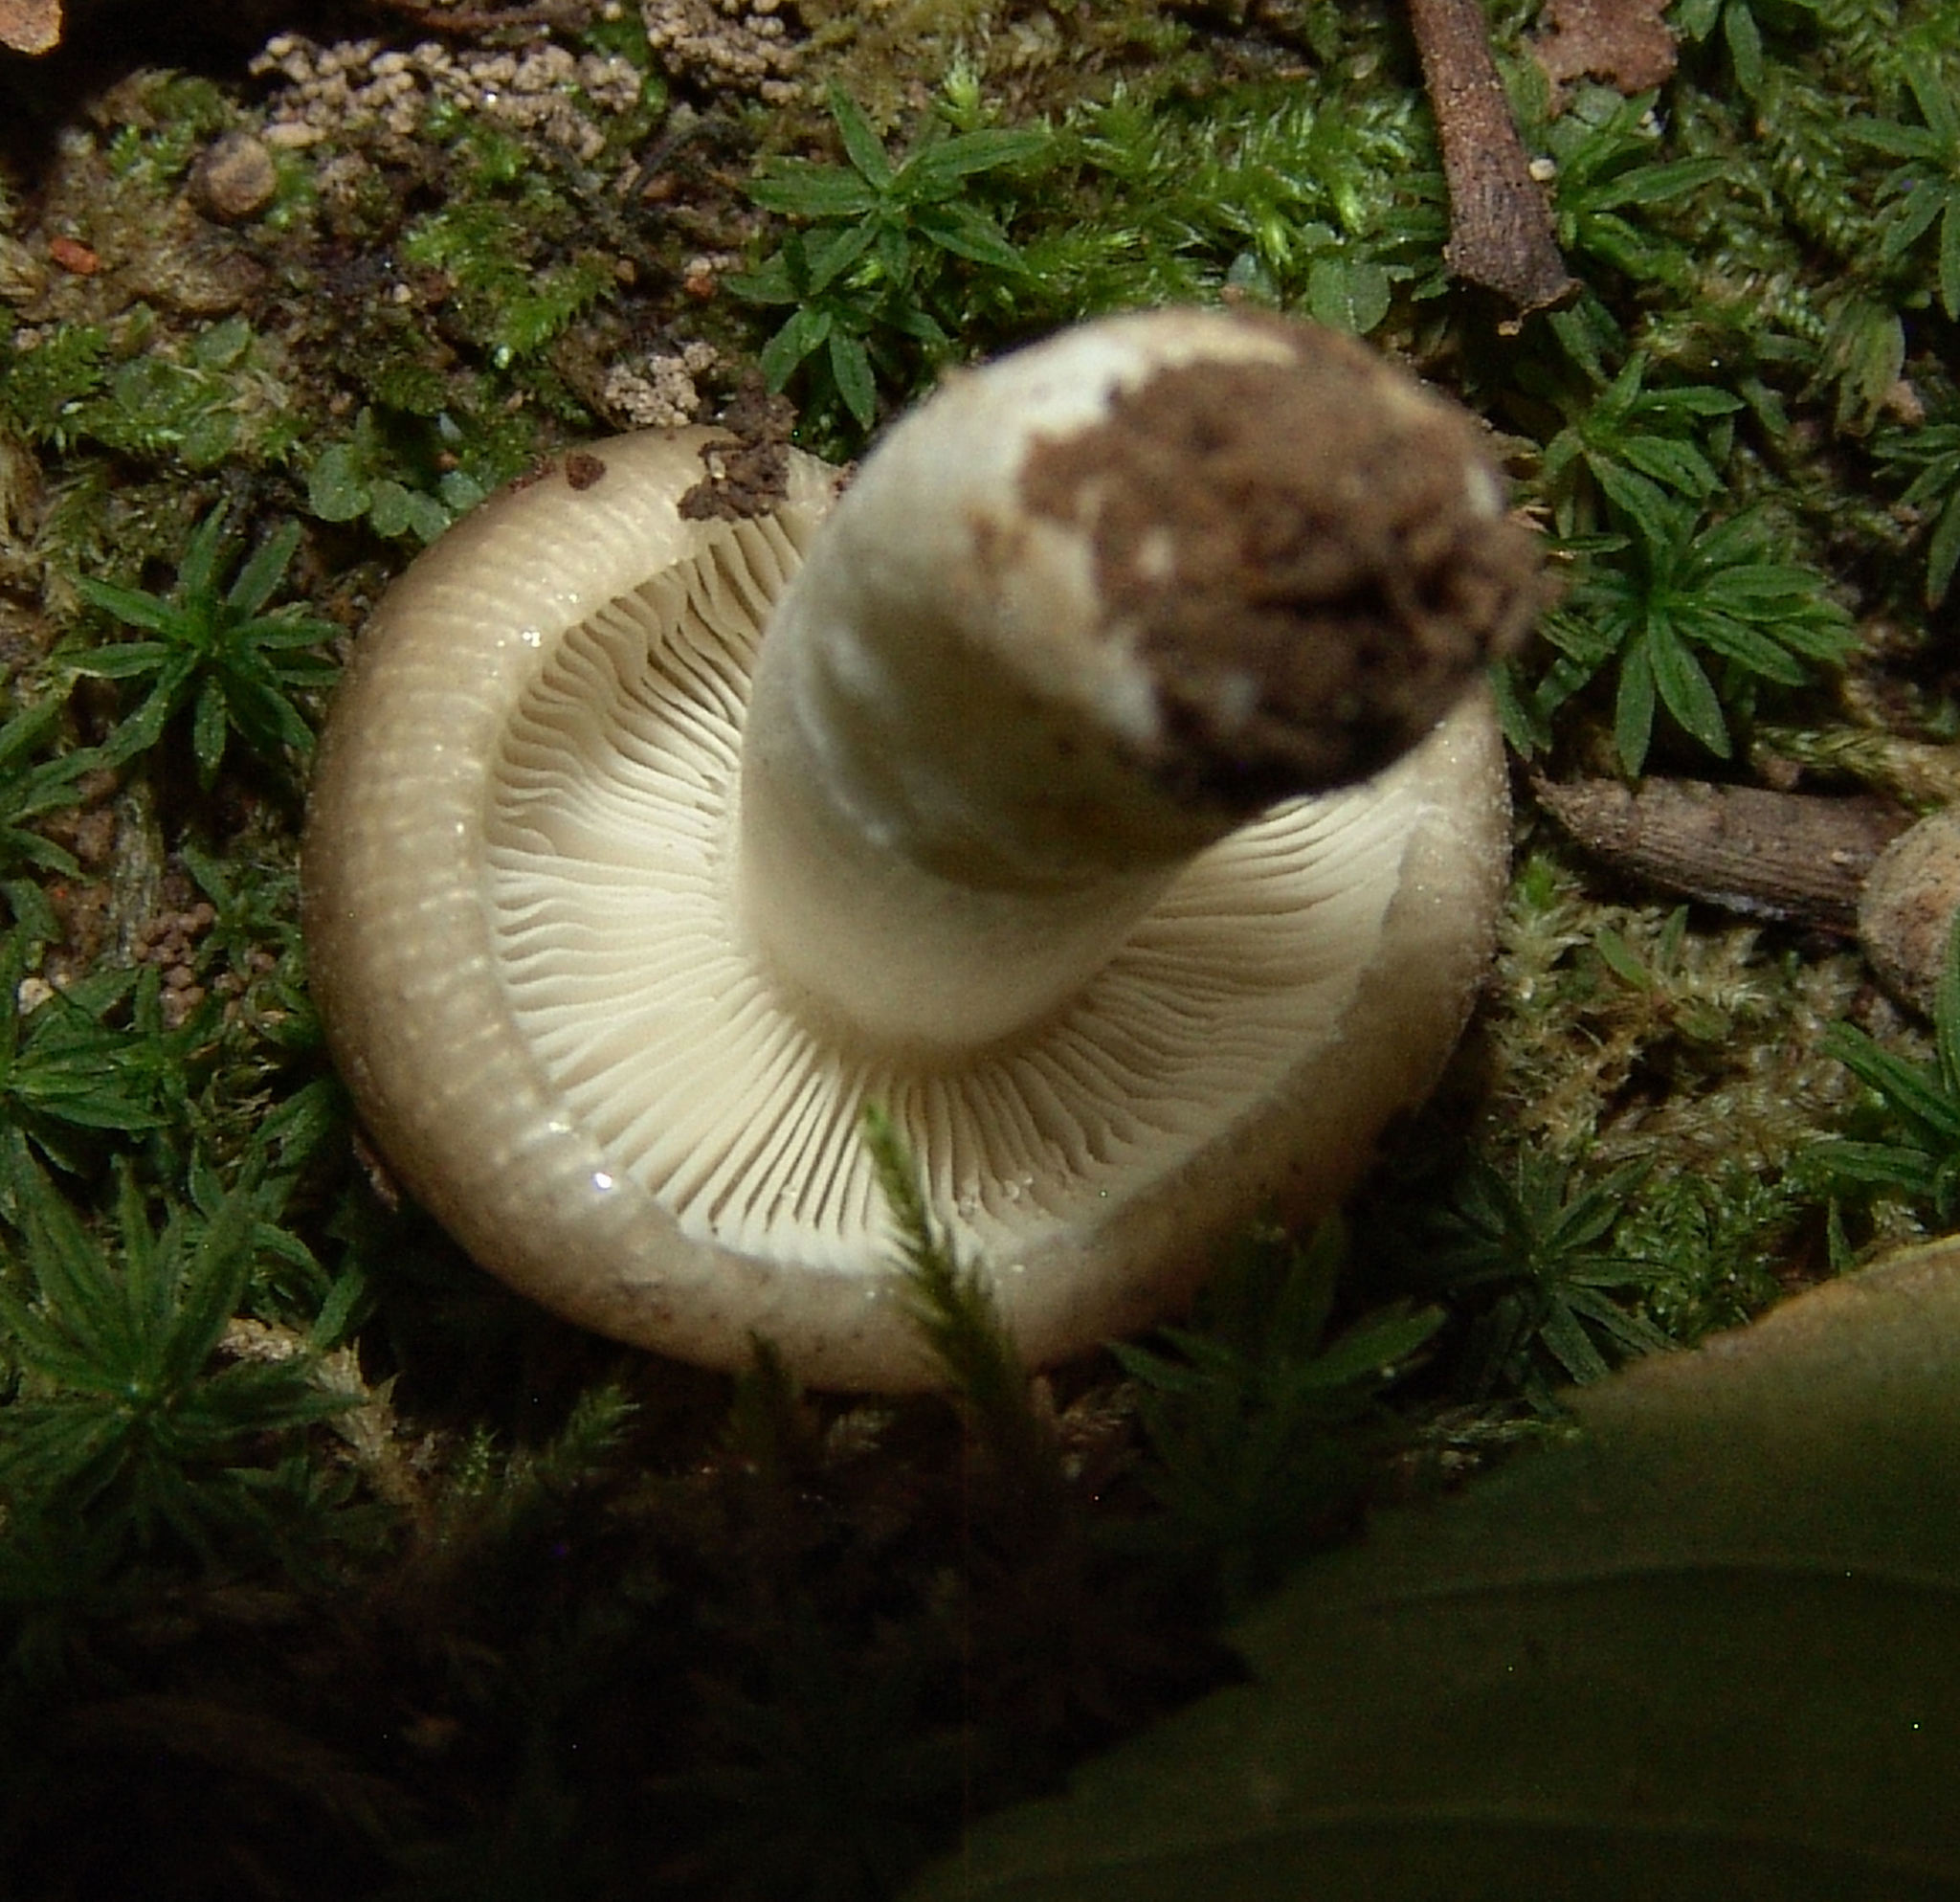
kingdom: Fungi
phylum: Basidiomycota
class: Agaricomycetes
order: Russulales
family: Russulaceae
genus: Russula
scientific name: Russula
